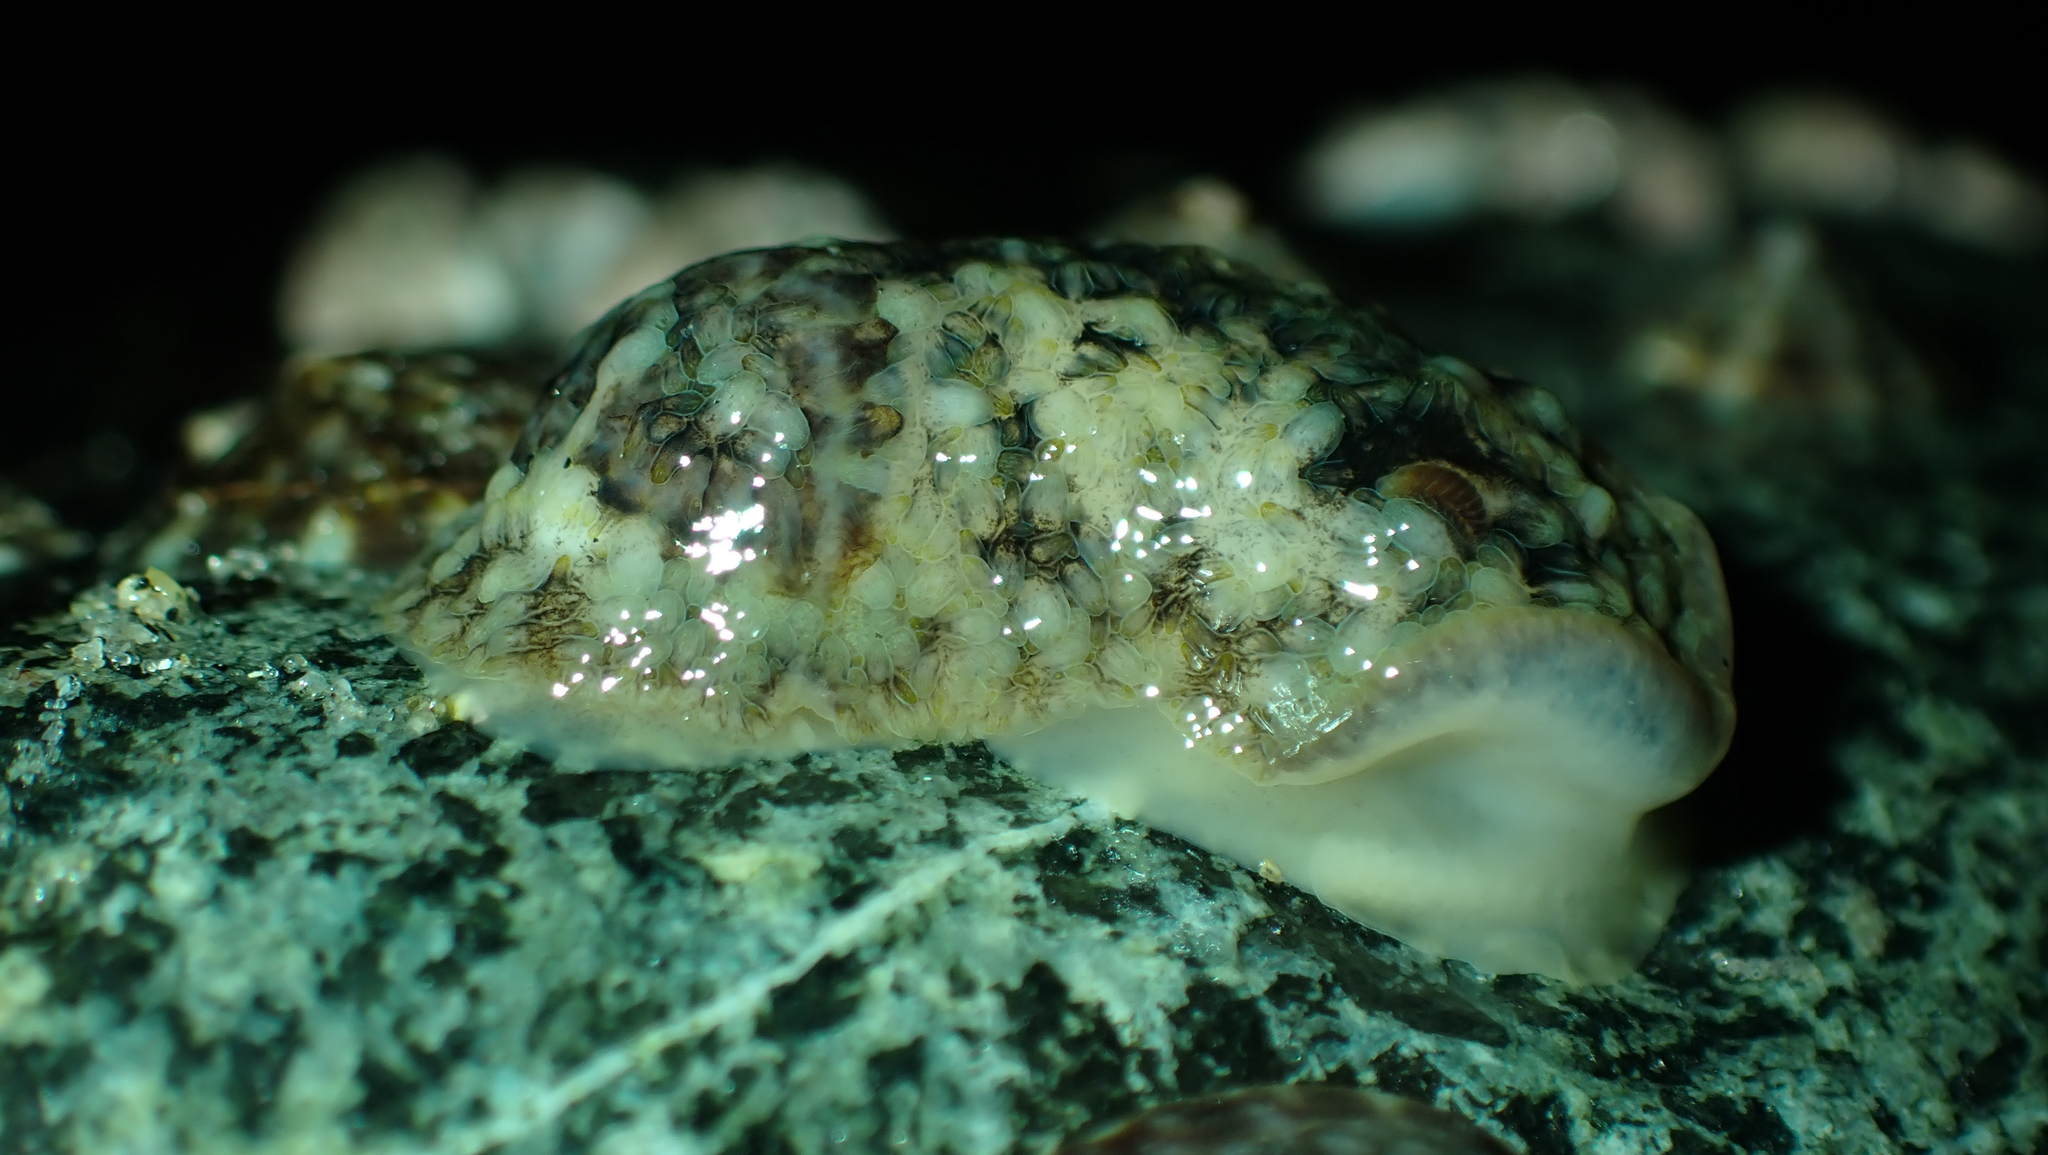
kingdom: Animalia
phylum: Mollusca
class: Gastropoda
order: Nudibranchia
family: Onchidorididae
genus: Onchidoris
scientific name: Onchidoris bilamellata
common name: Barnacle-eating onchidoris
